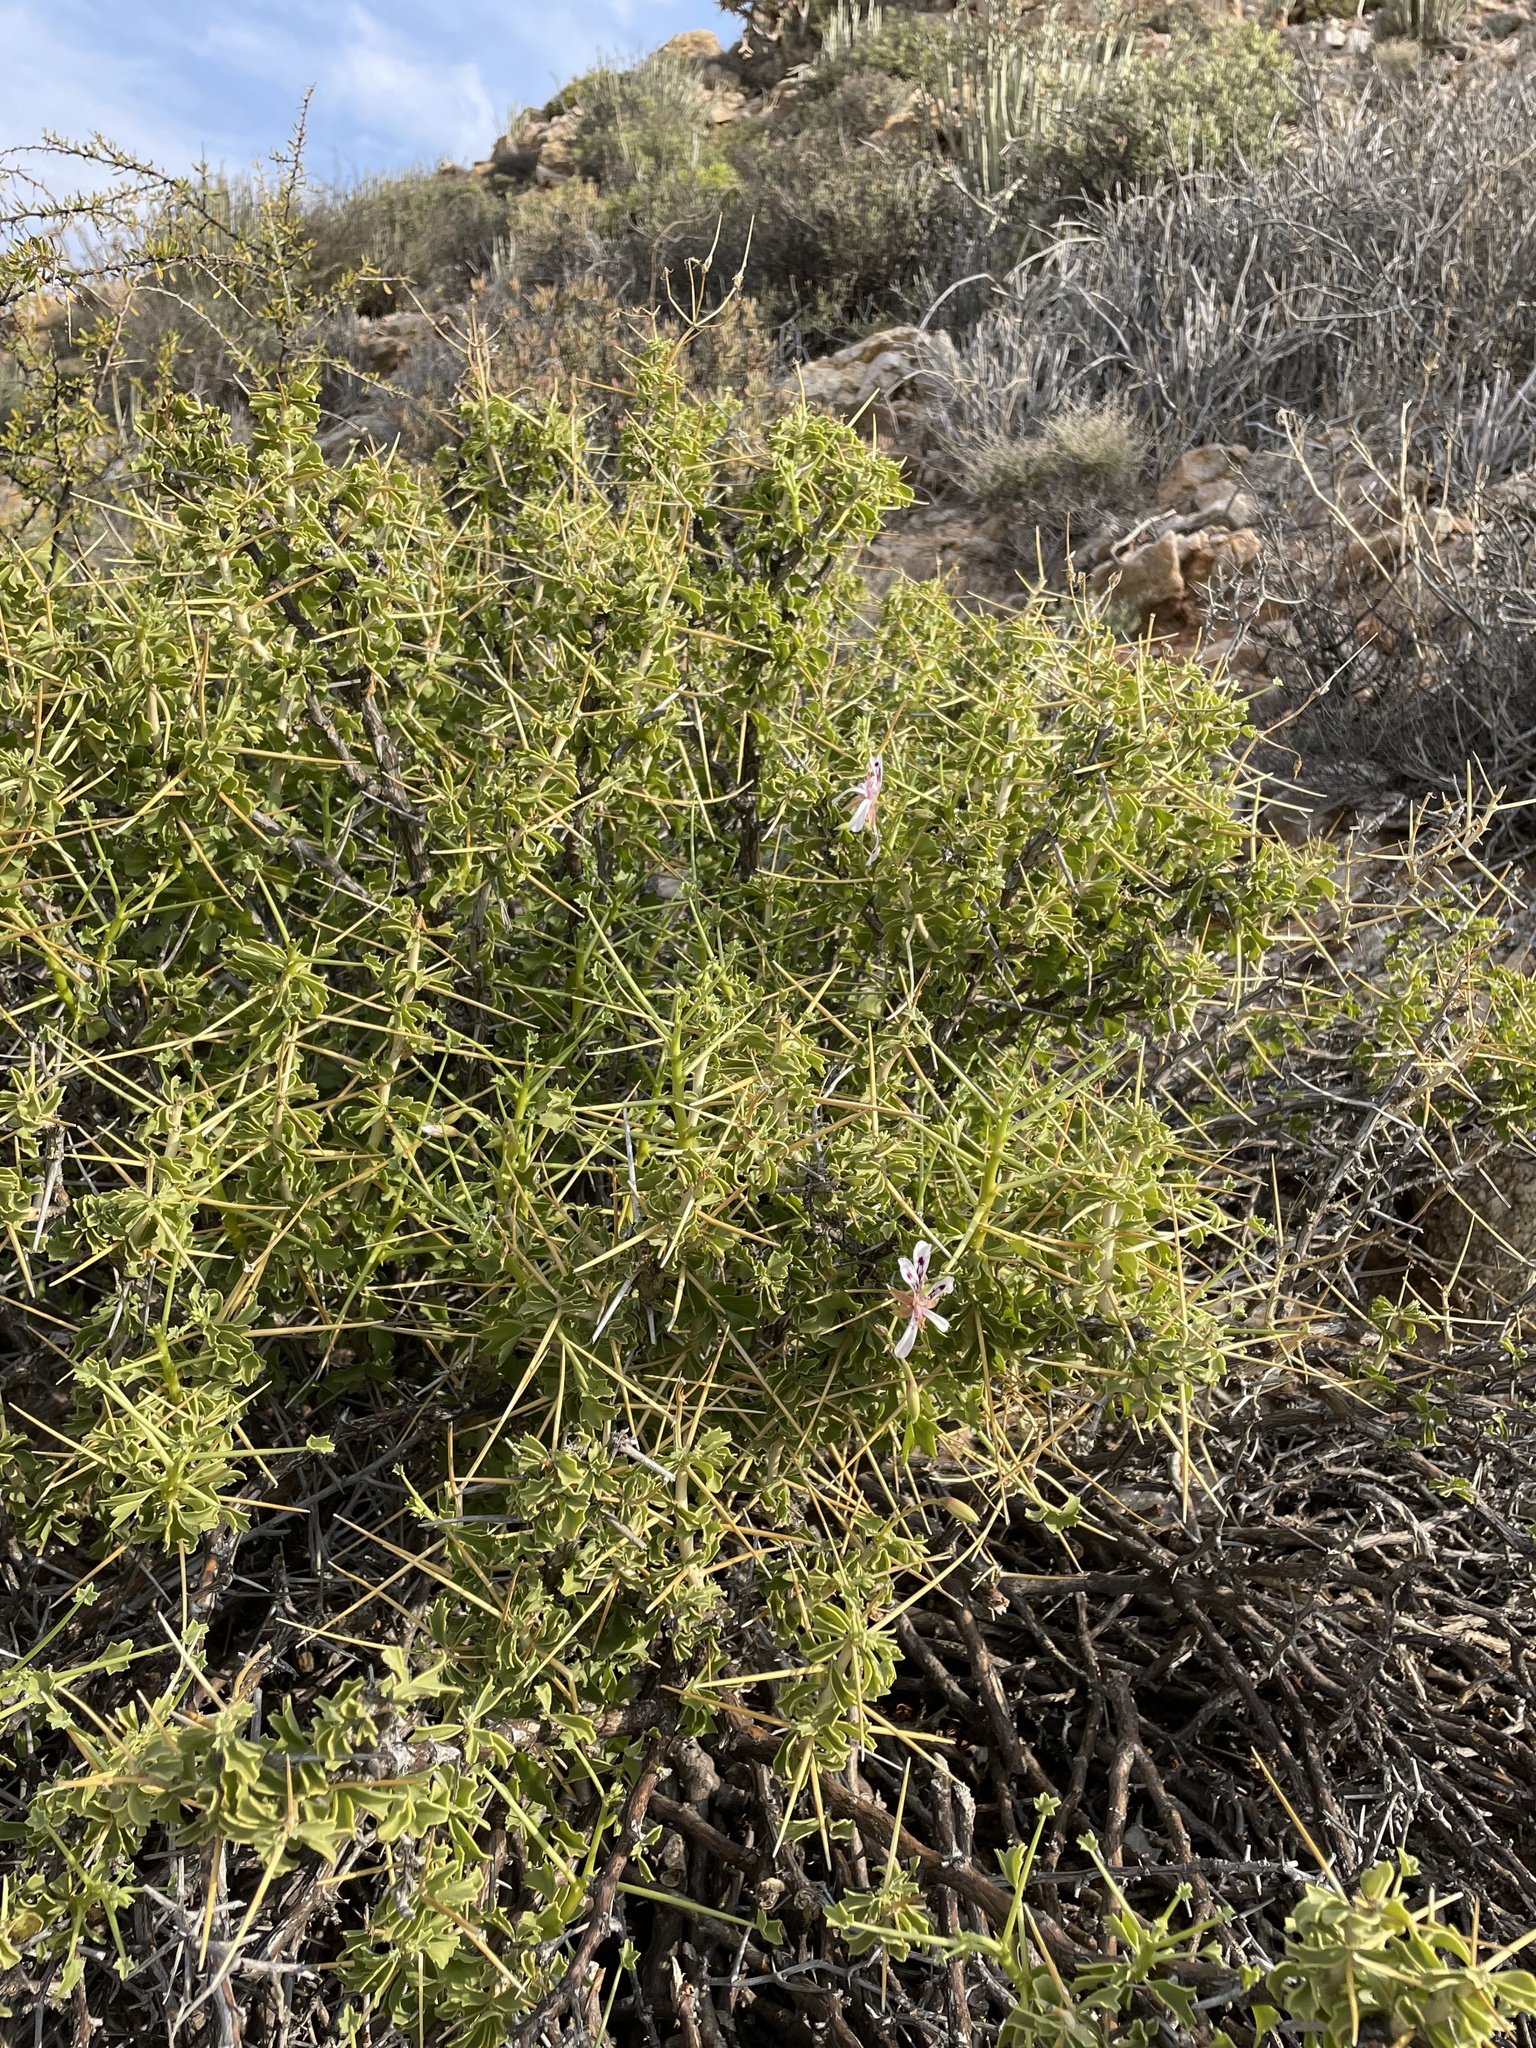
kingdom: Plantae
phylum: Tracheophyta
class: Magnoliopsida
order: Geraniales
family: Geraniaceae
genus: Pelargonium
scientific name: Pelargonium spinosum
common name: Thorny pelargonium
